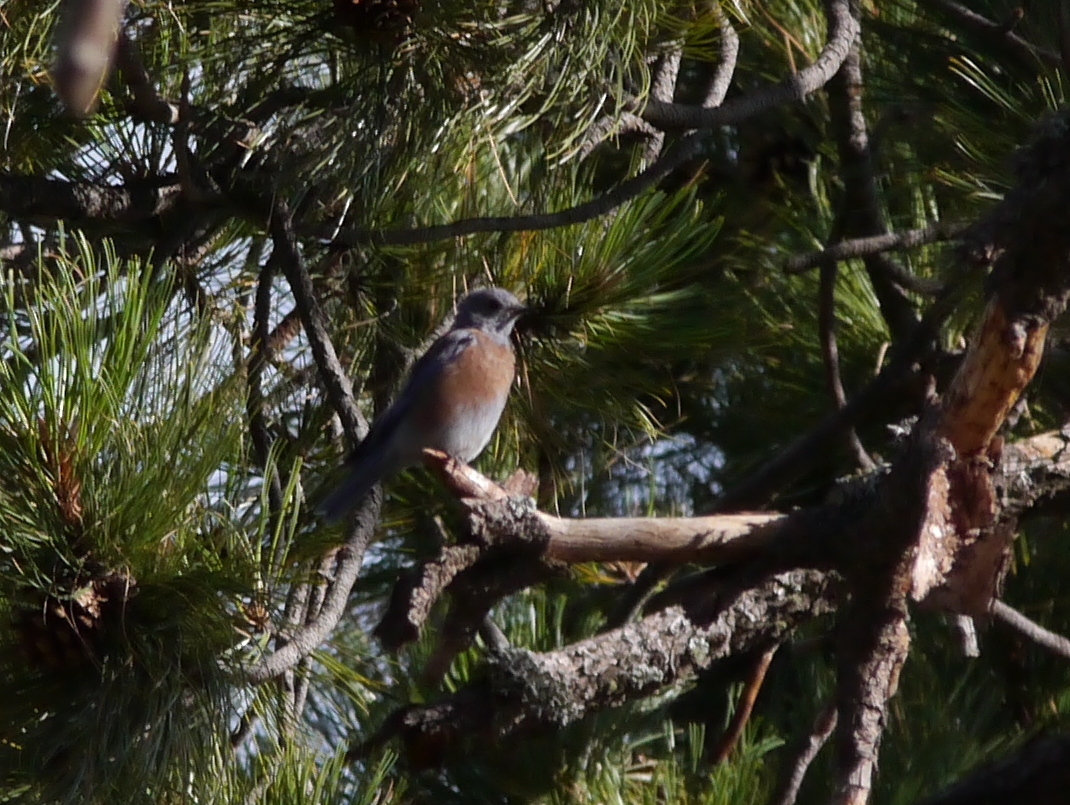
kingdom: Animalia
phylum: Chordata
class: Aves
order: Passeriformes
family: Turdidae
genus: Sialia
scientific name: Sialia mexicana
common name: Western bluebird
